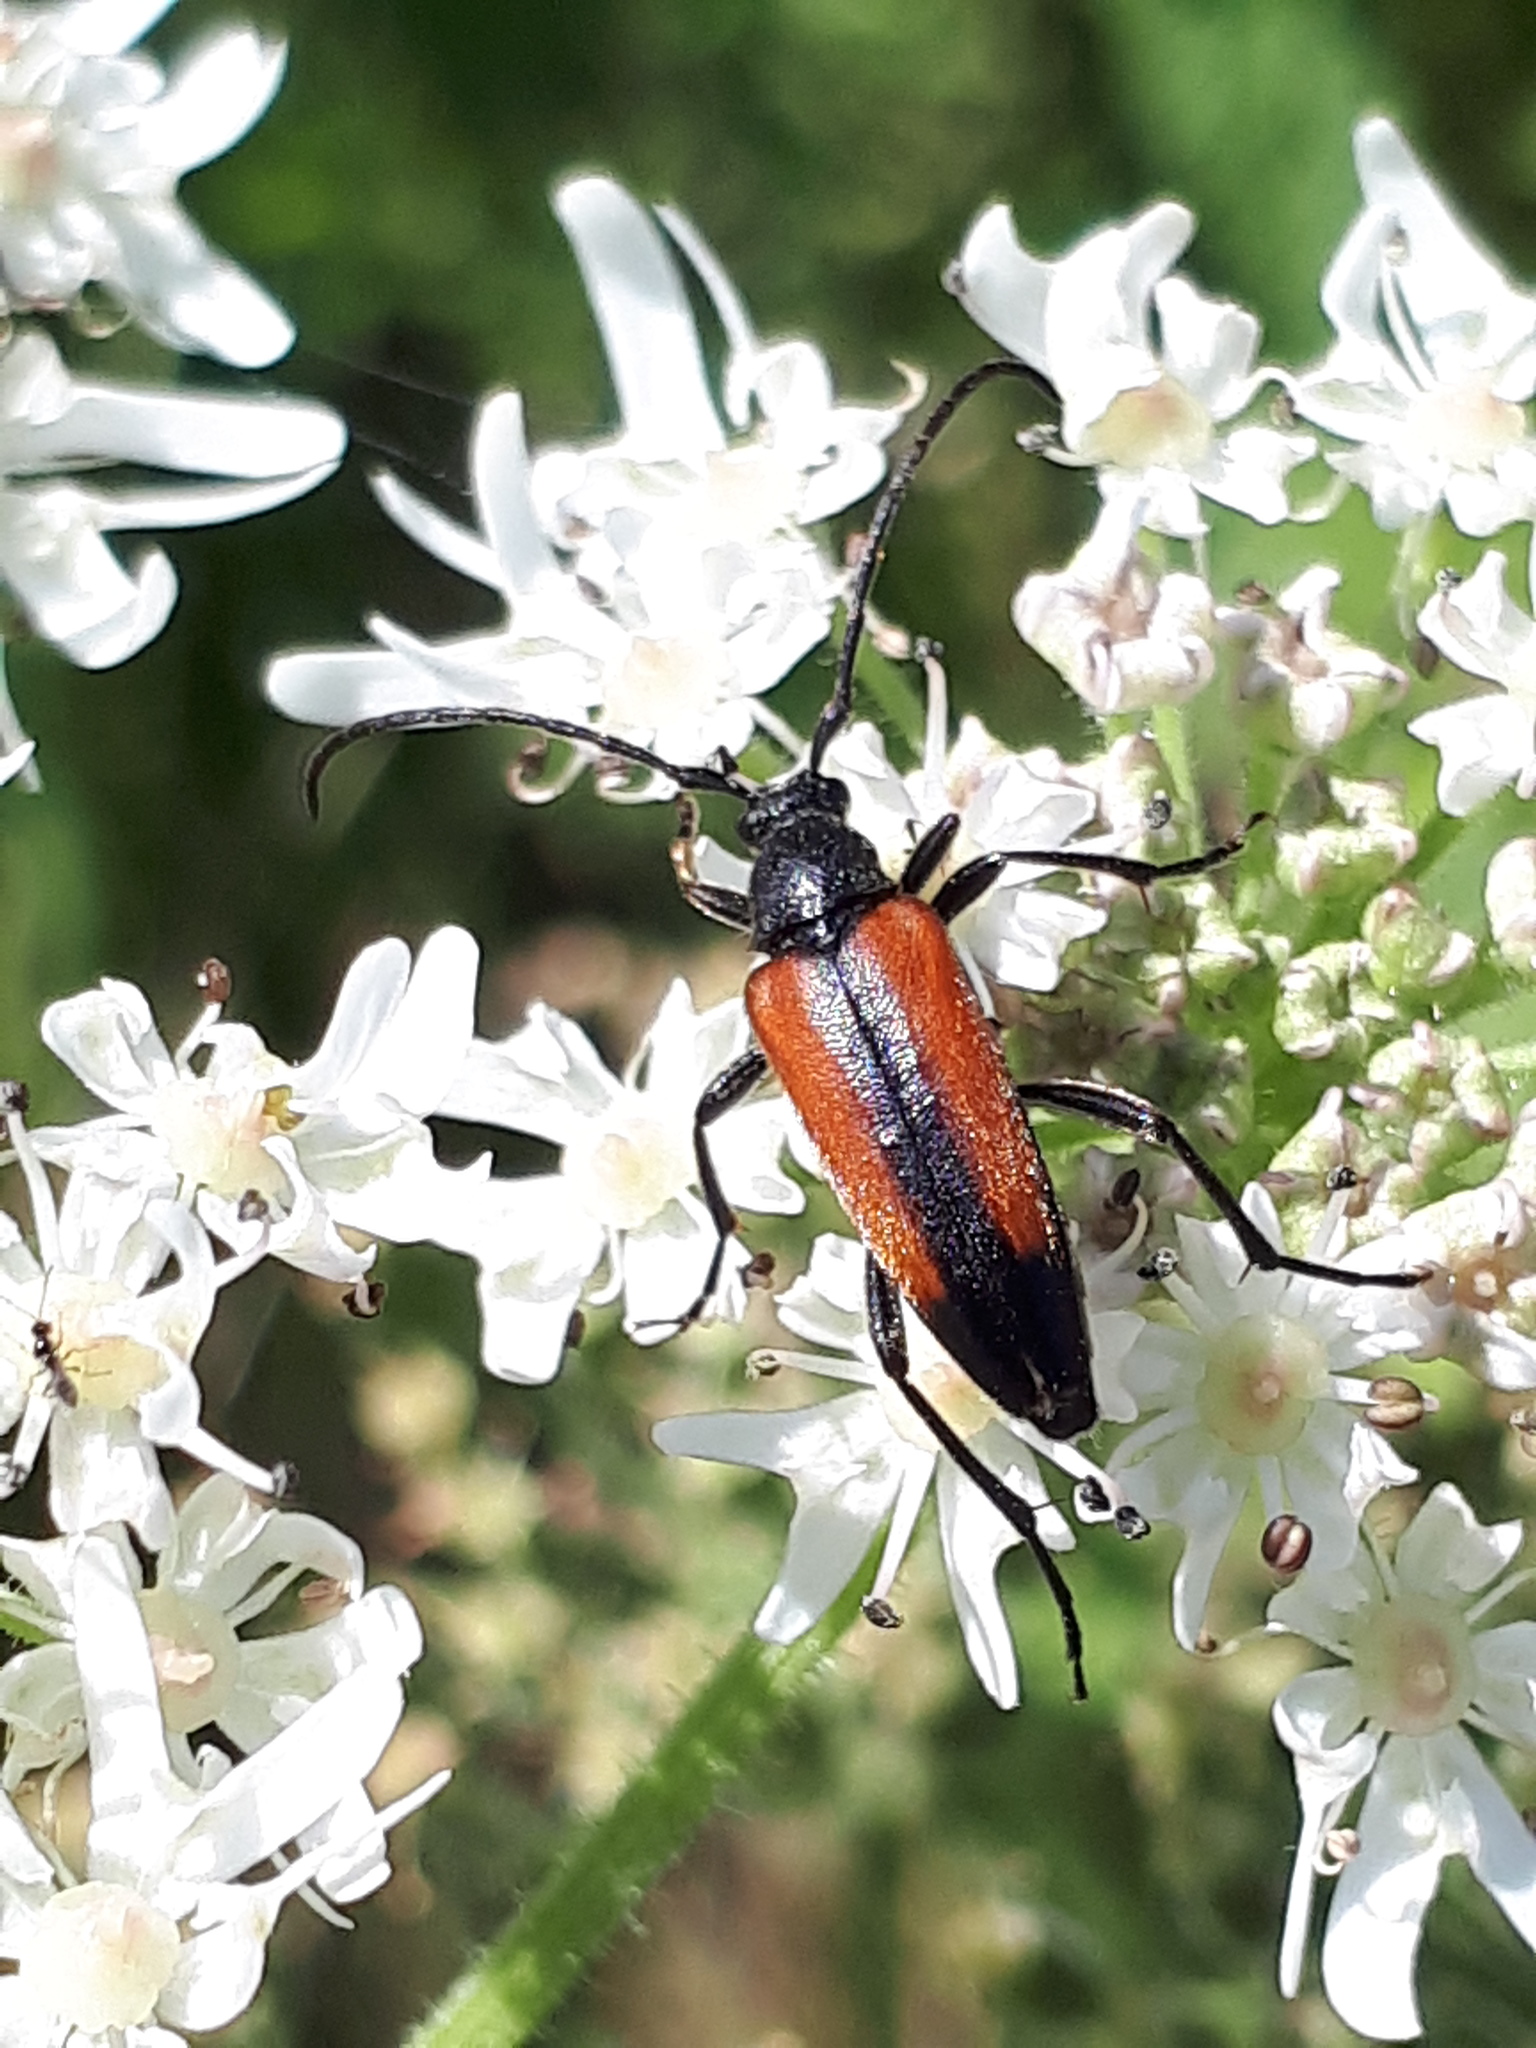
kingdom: Animalia
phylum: Arthropoda
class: Insecta
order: Coleoptera
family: Cerambycidae
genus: Stenurella
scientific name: Stenurella melanura
